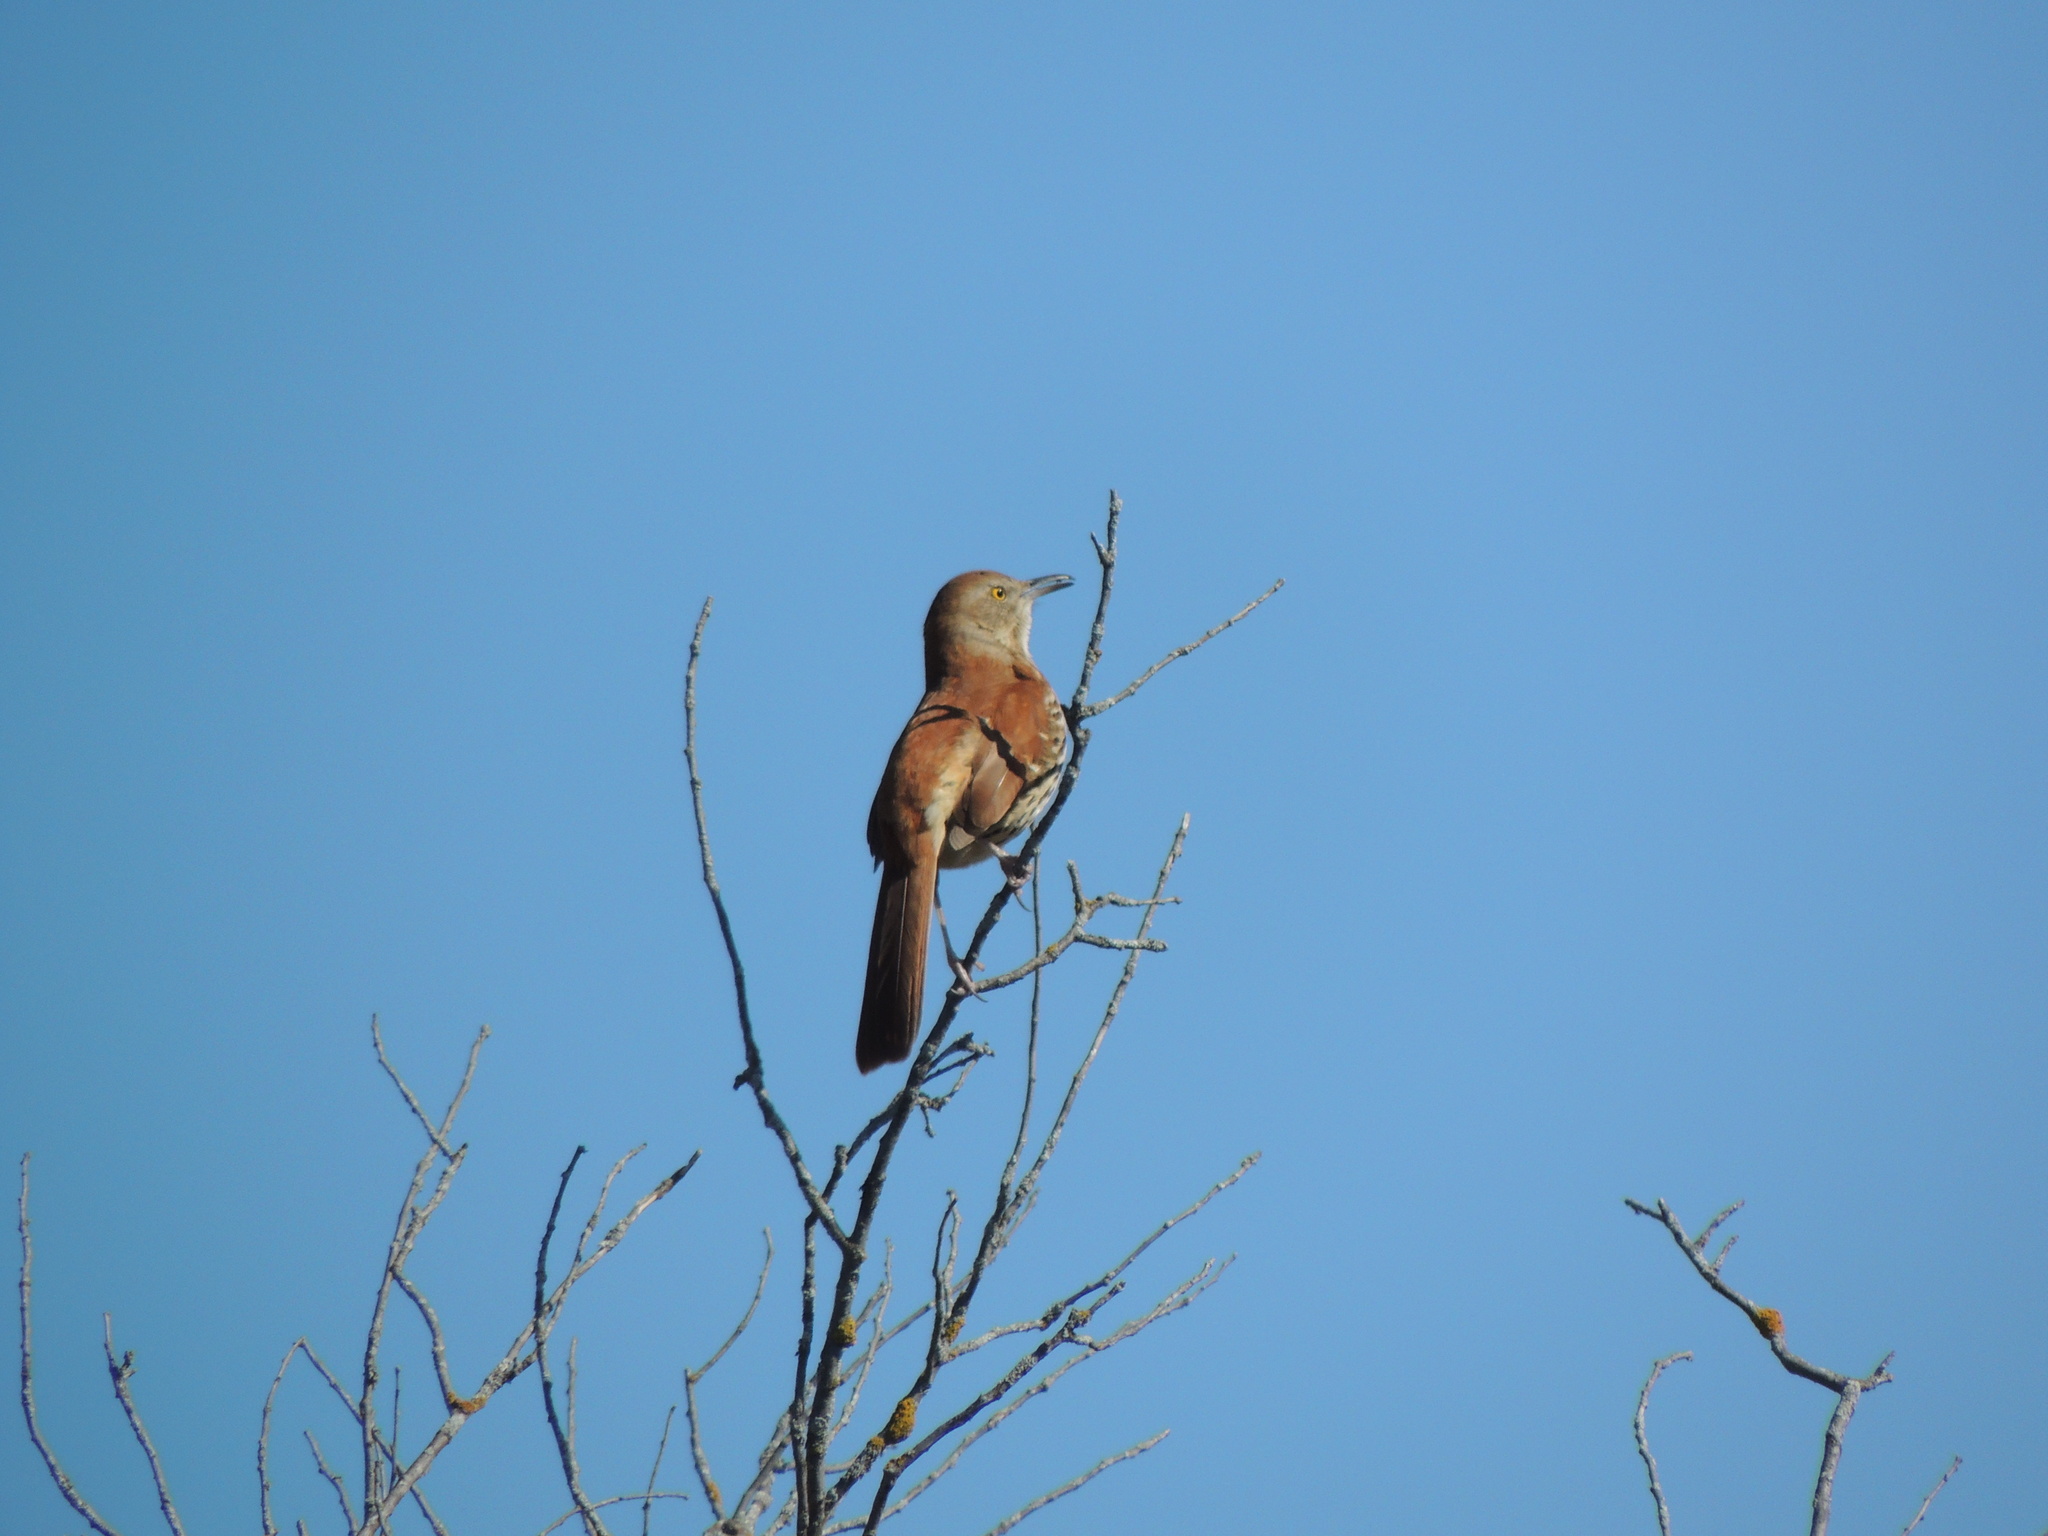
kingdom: Animalia
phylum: Chordata
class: Aves
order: Passeriformes
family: Mimidae
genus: Toxostoma
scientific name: Toxostoma rufum
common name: Brown thrasher
